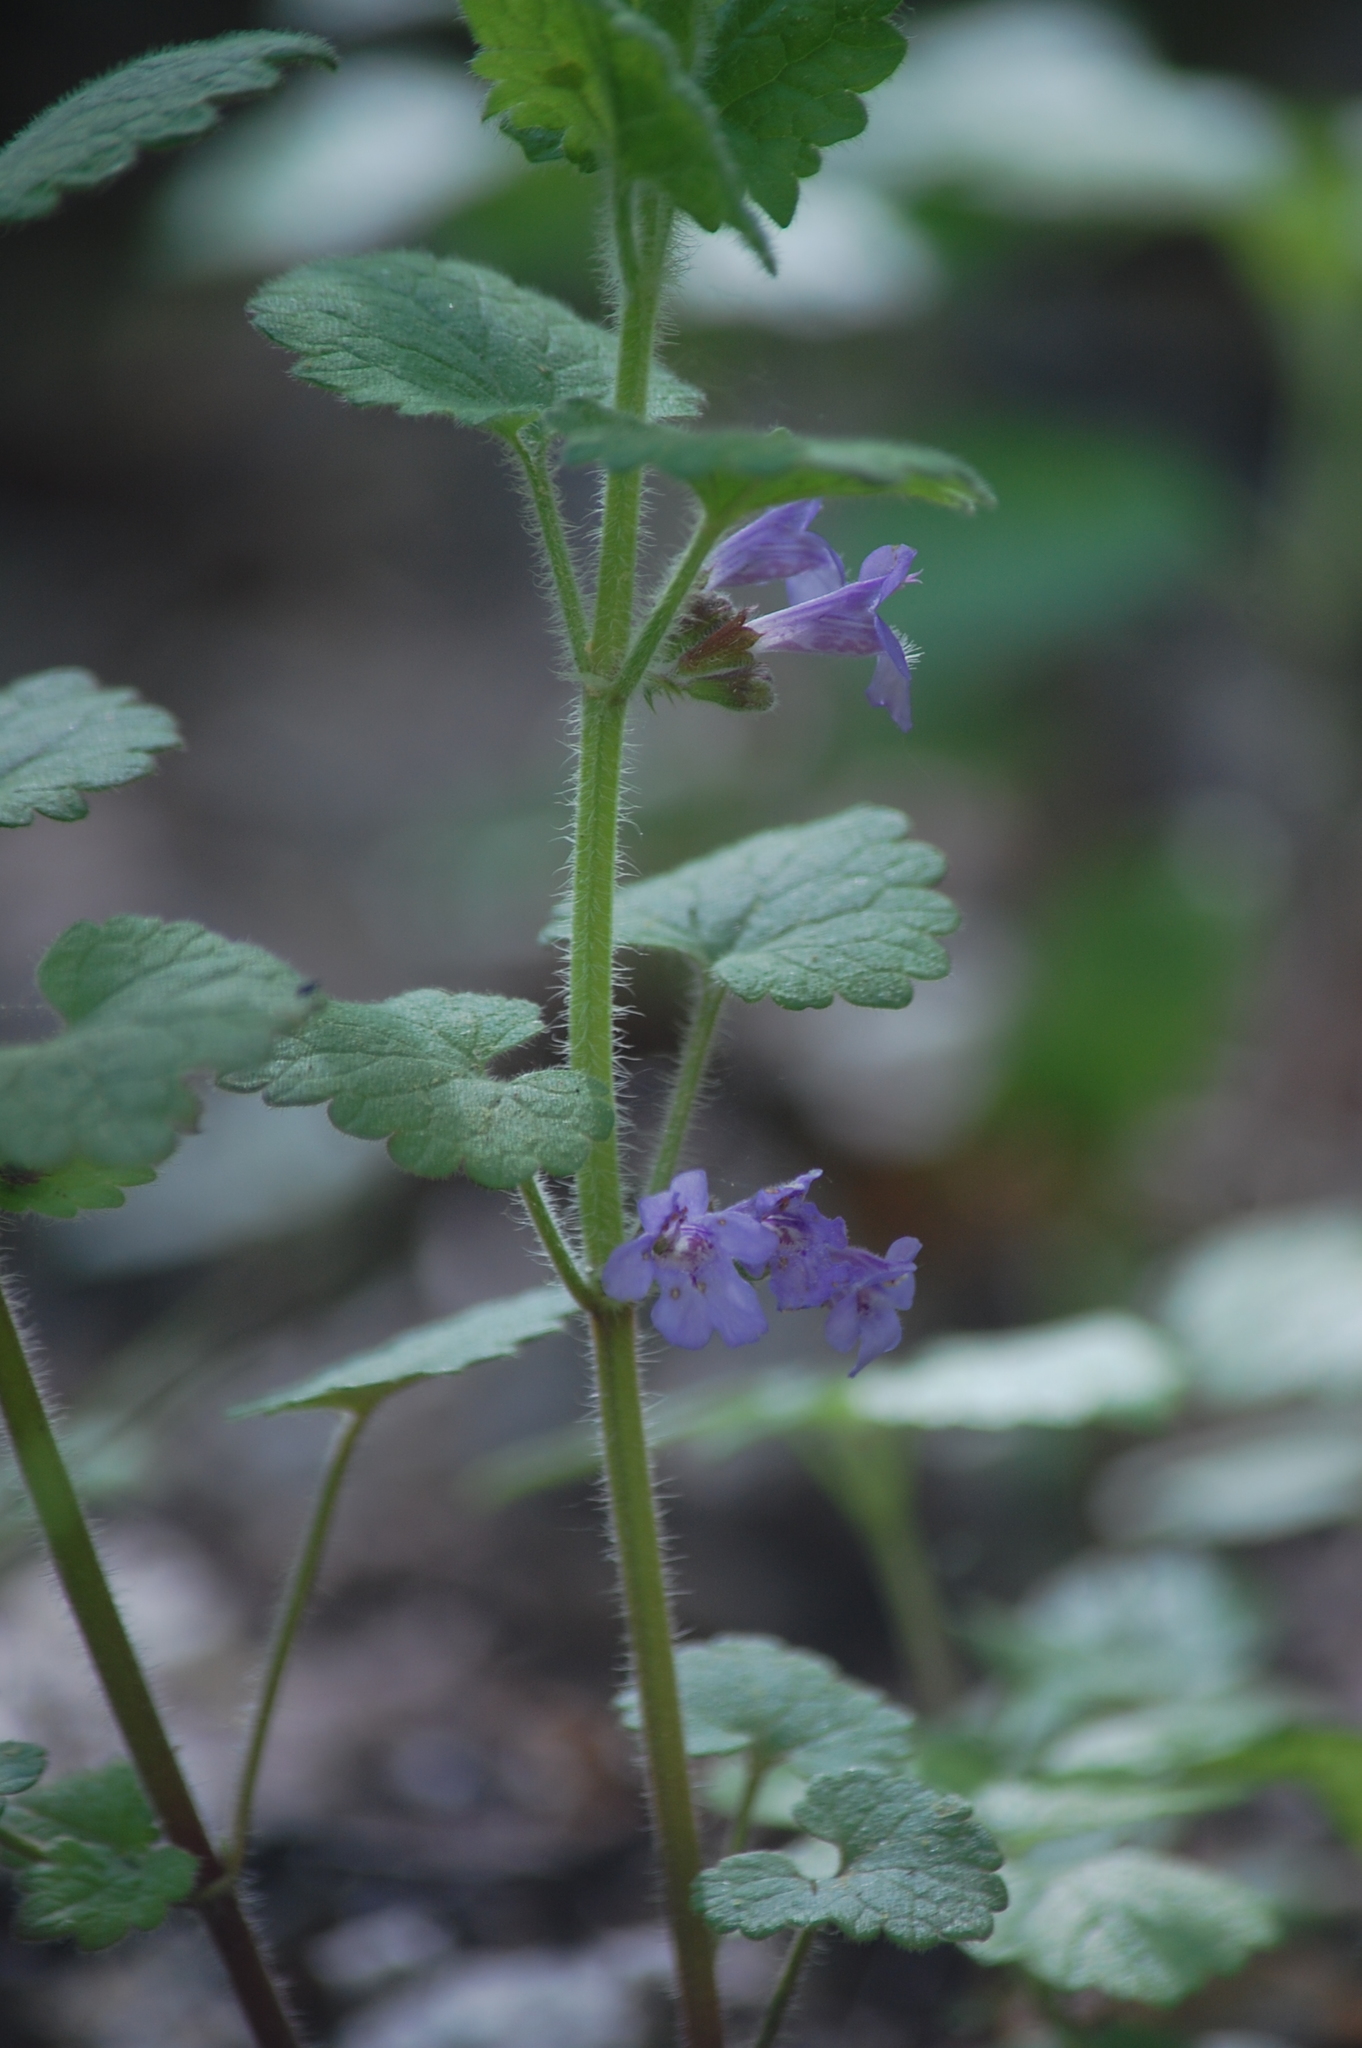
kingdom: Plantae
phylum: Tracheophyta
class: Magnoliopsida
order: Lamiales
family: Lamiaceae
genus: Glechoma
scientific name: Glechoma hederacea
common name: Ground ivy
